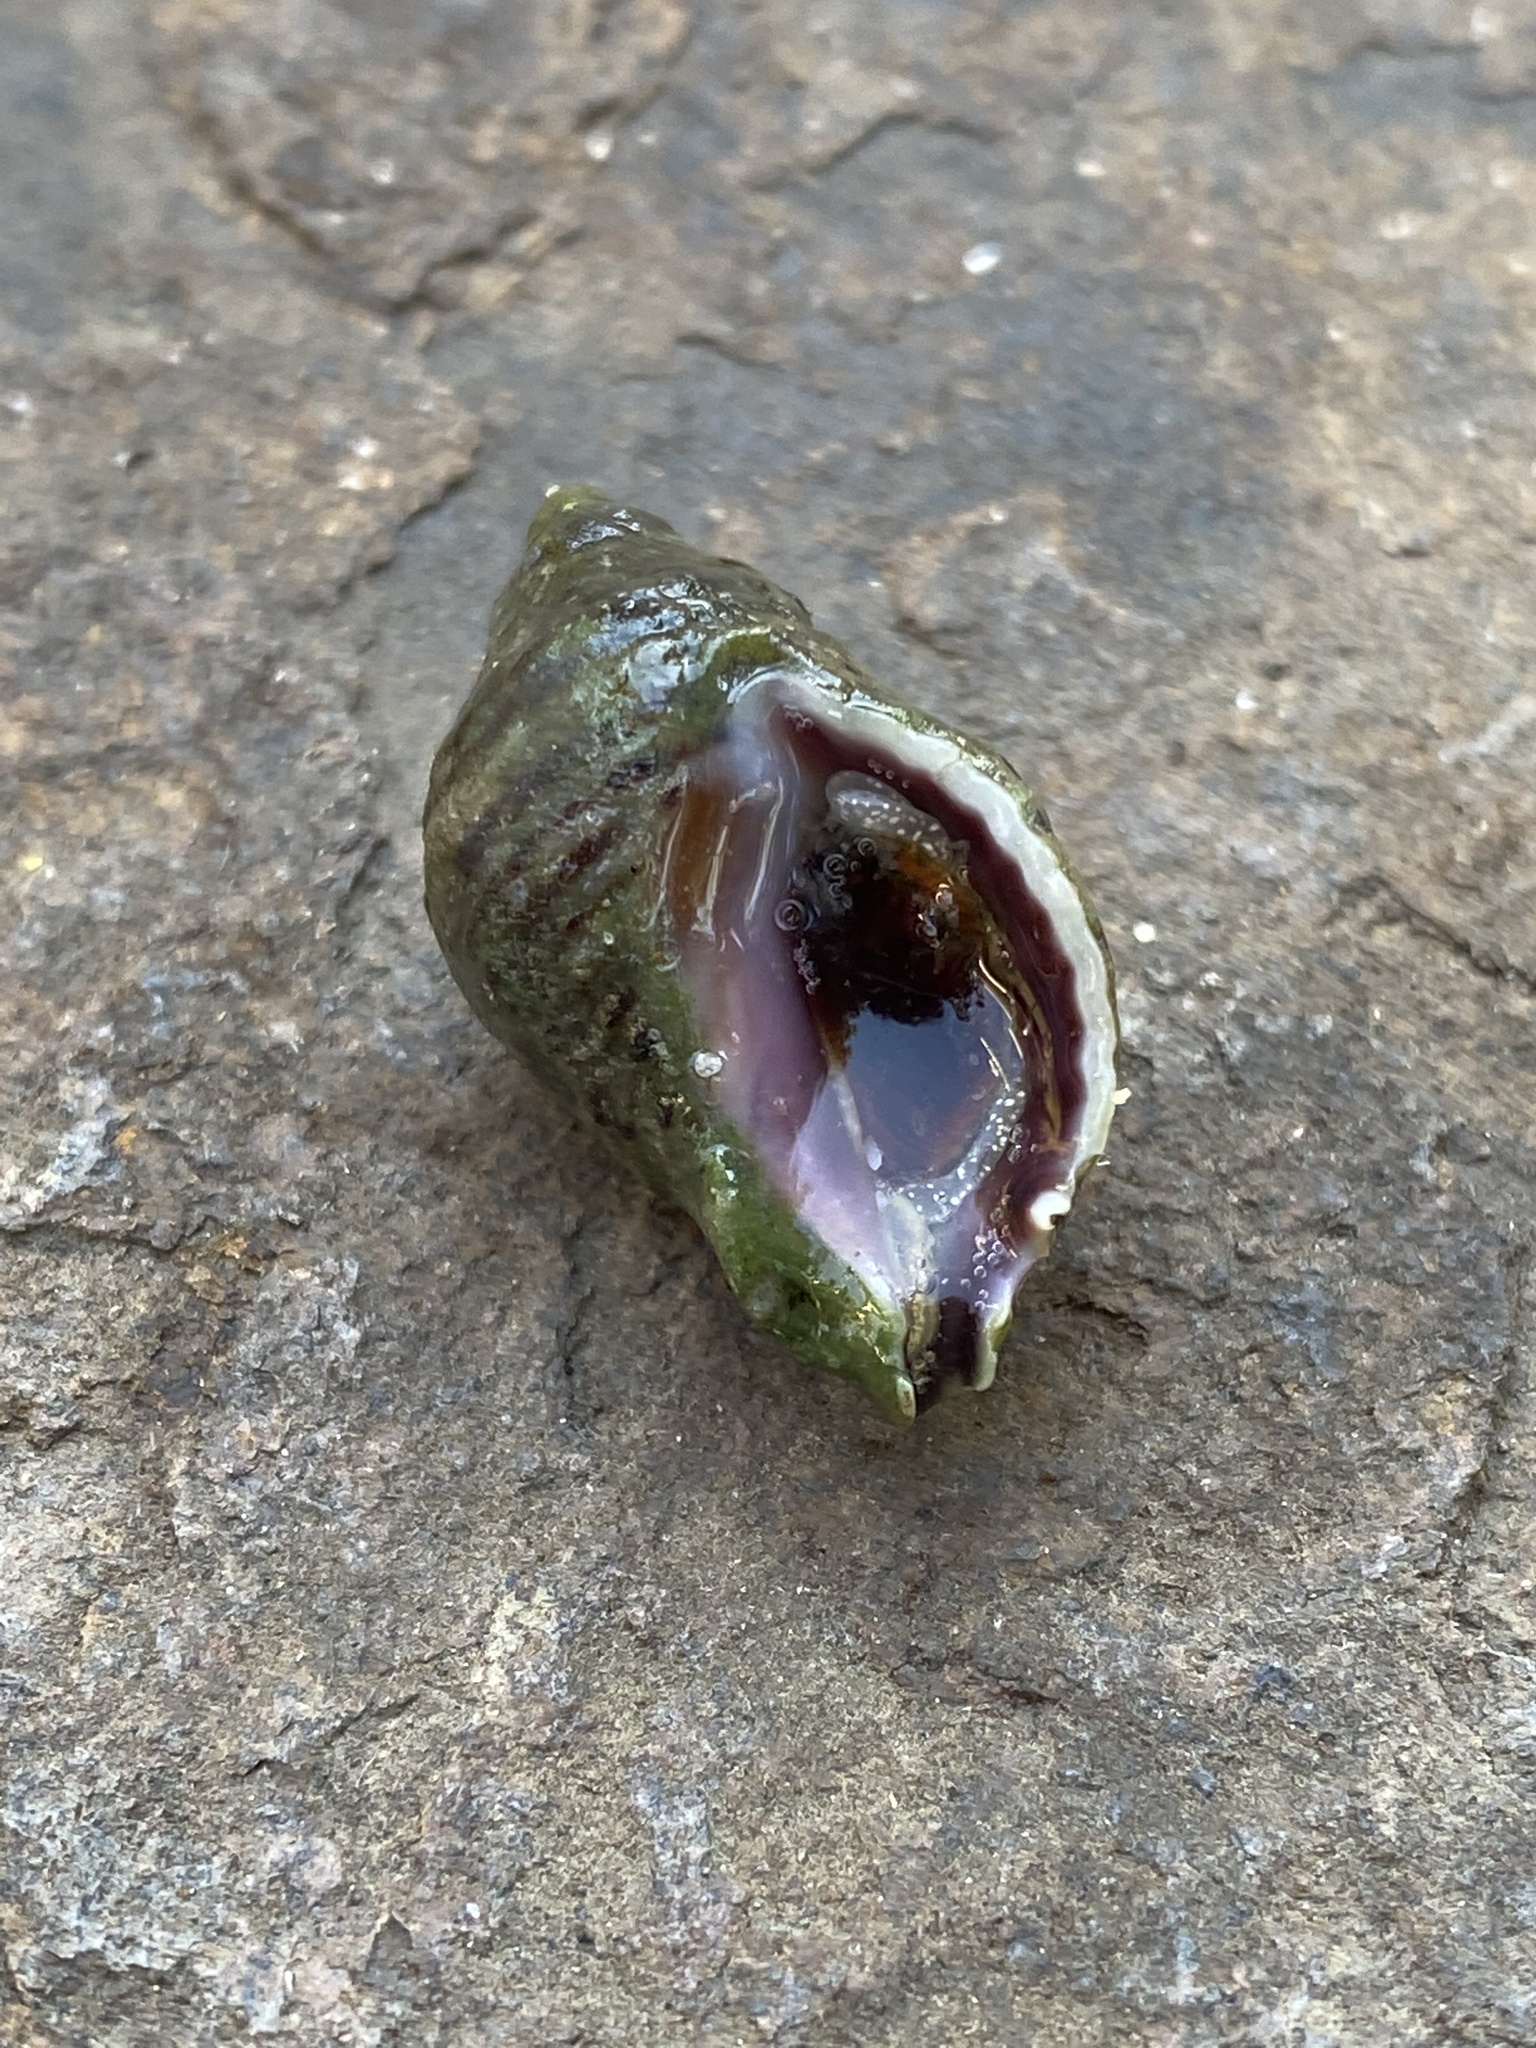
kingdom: Animalia
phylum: Mollusca
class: Gastropoda
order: Neogastropoda
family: Muricidae
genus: Acanthinucella
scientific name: Acanthinucella punctulata
